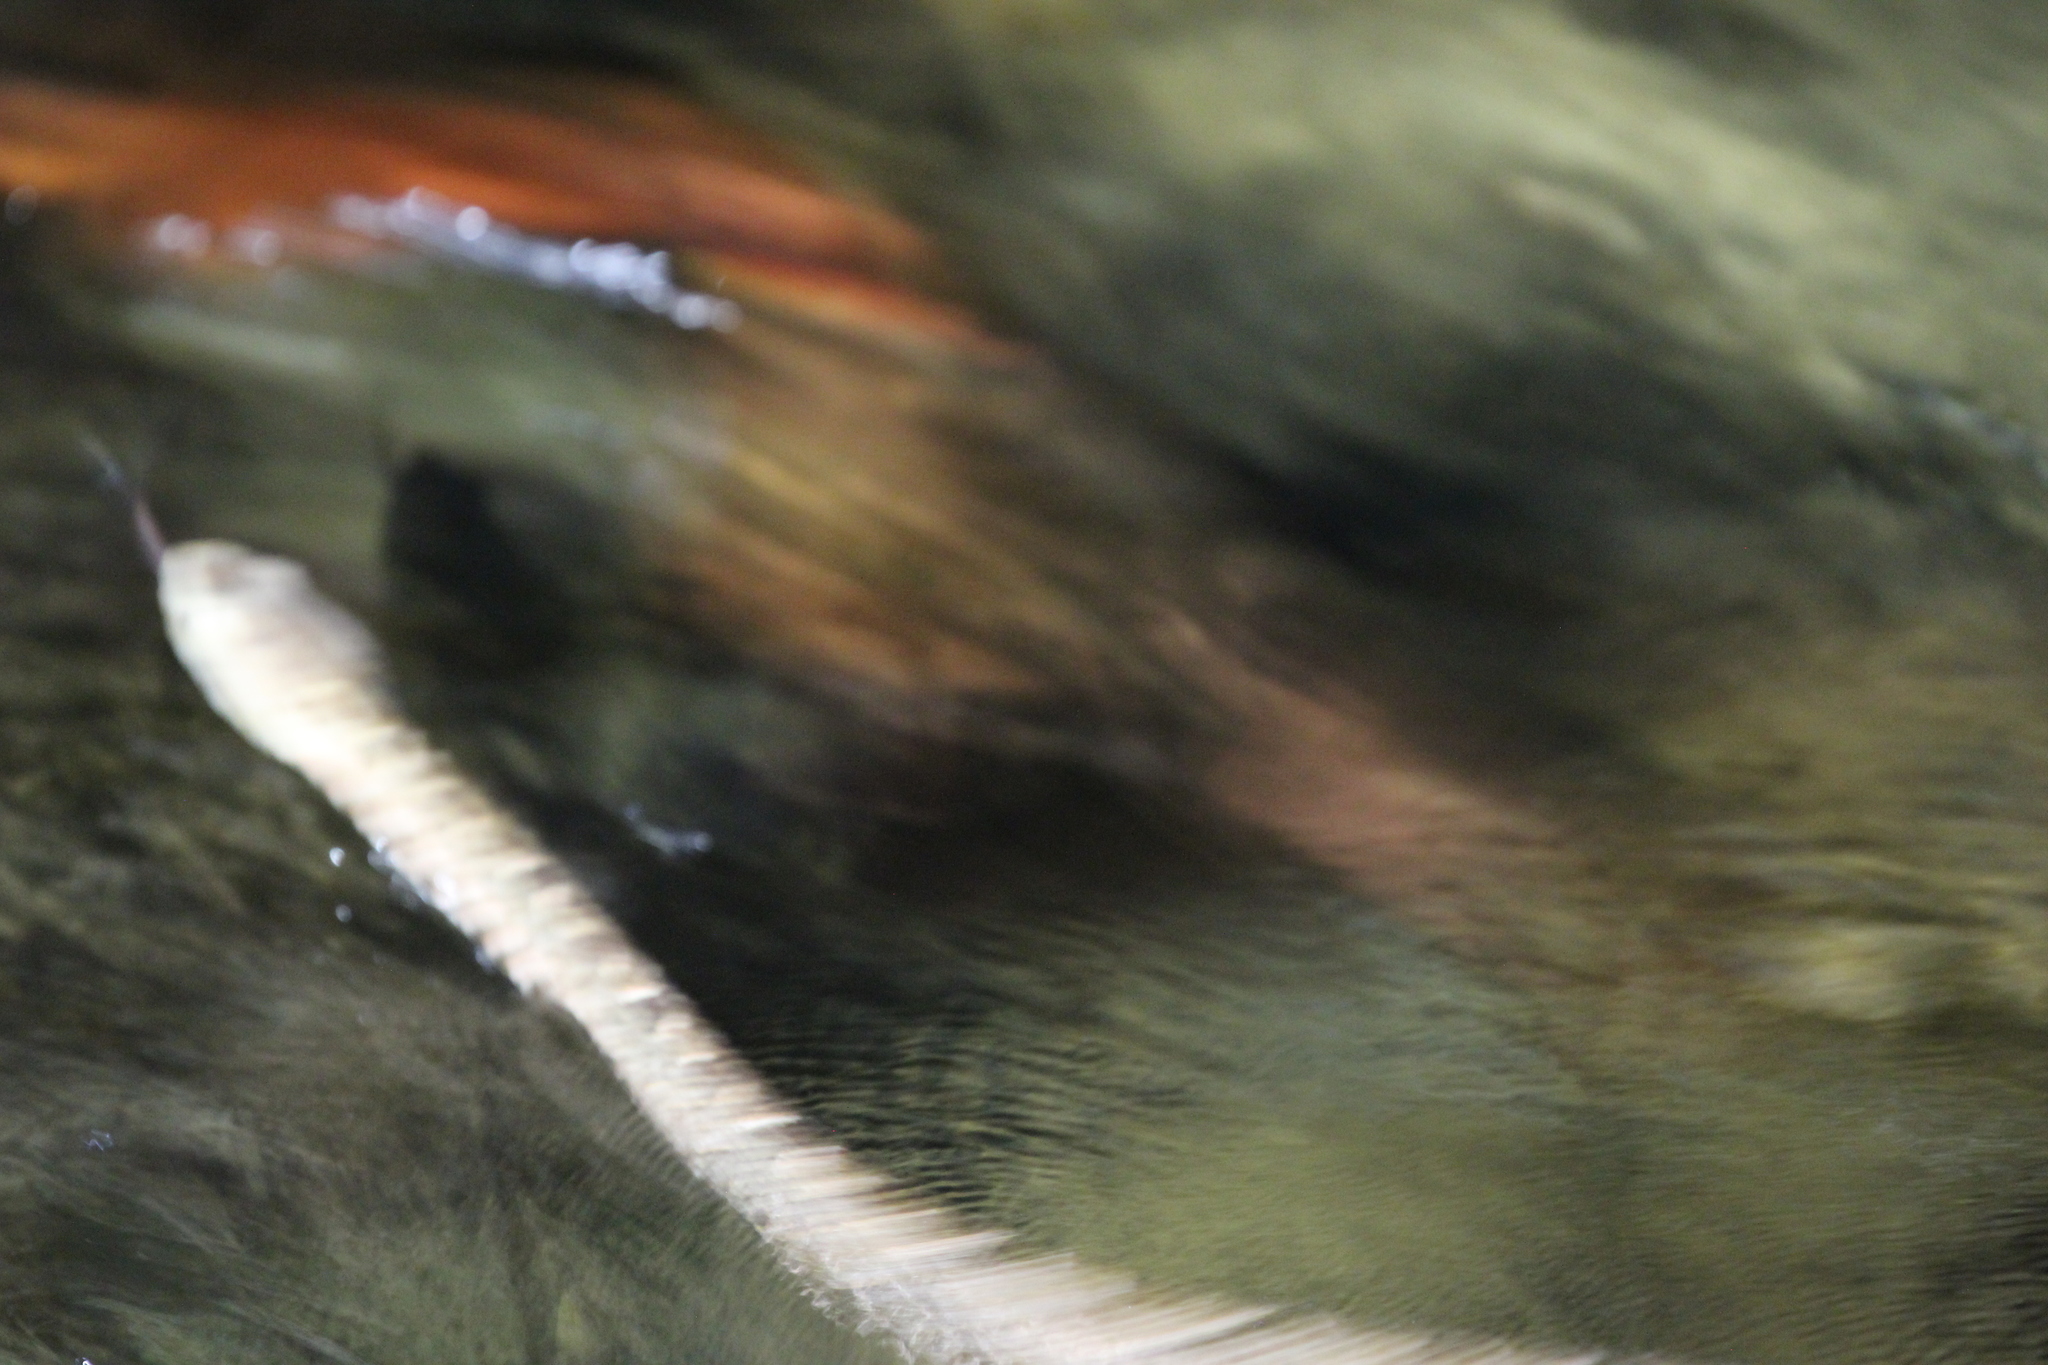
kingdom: Animalia
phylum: Chordata
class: Squamata
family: Viperidae
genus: Bothrops
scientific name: Bothrops asper
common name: Terciopelo
